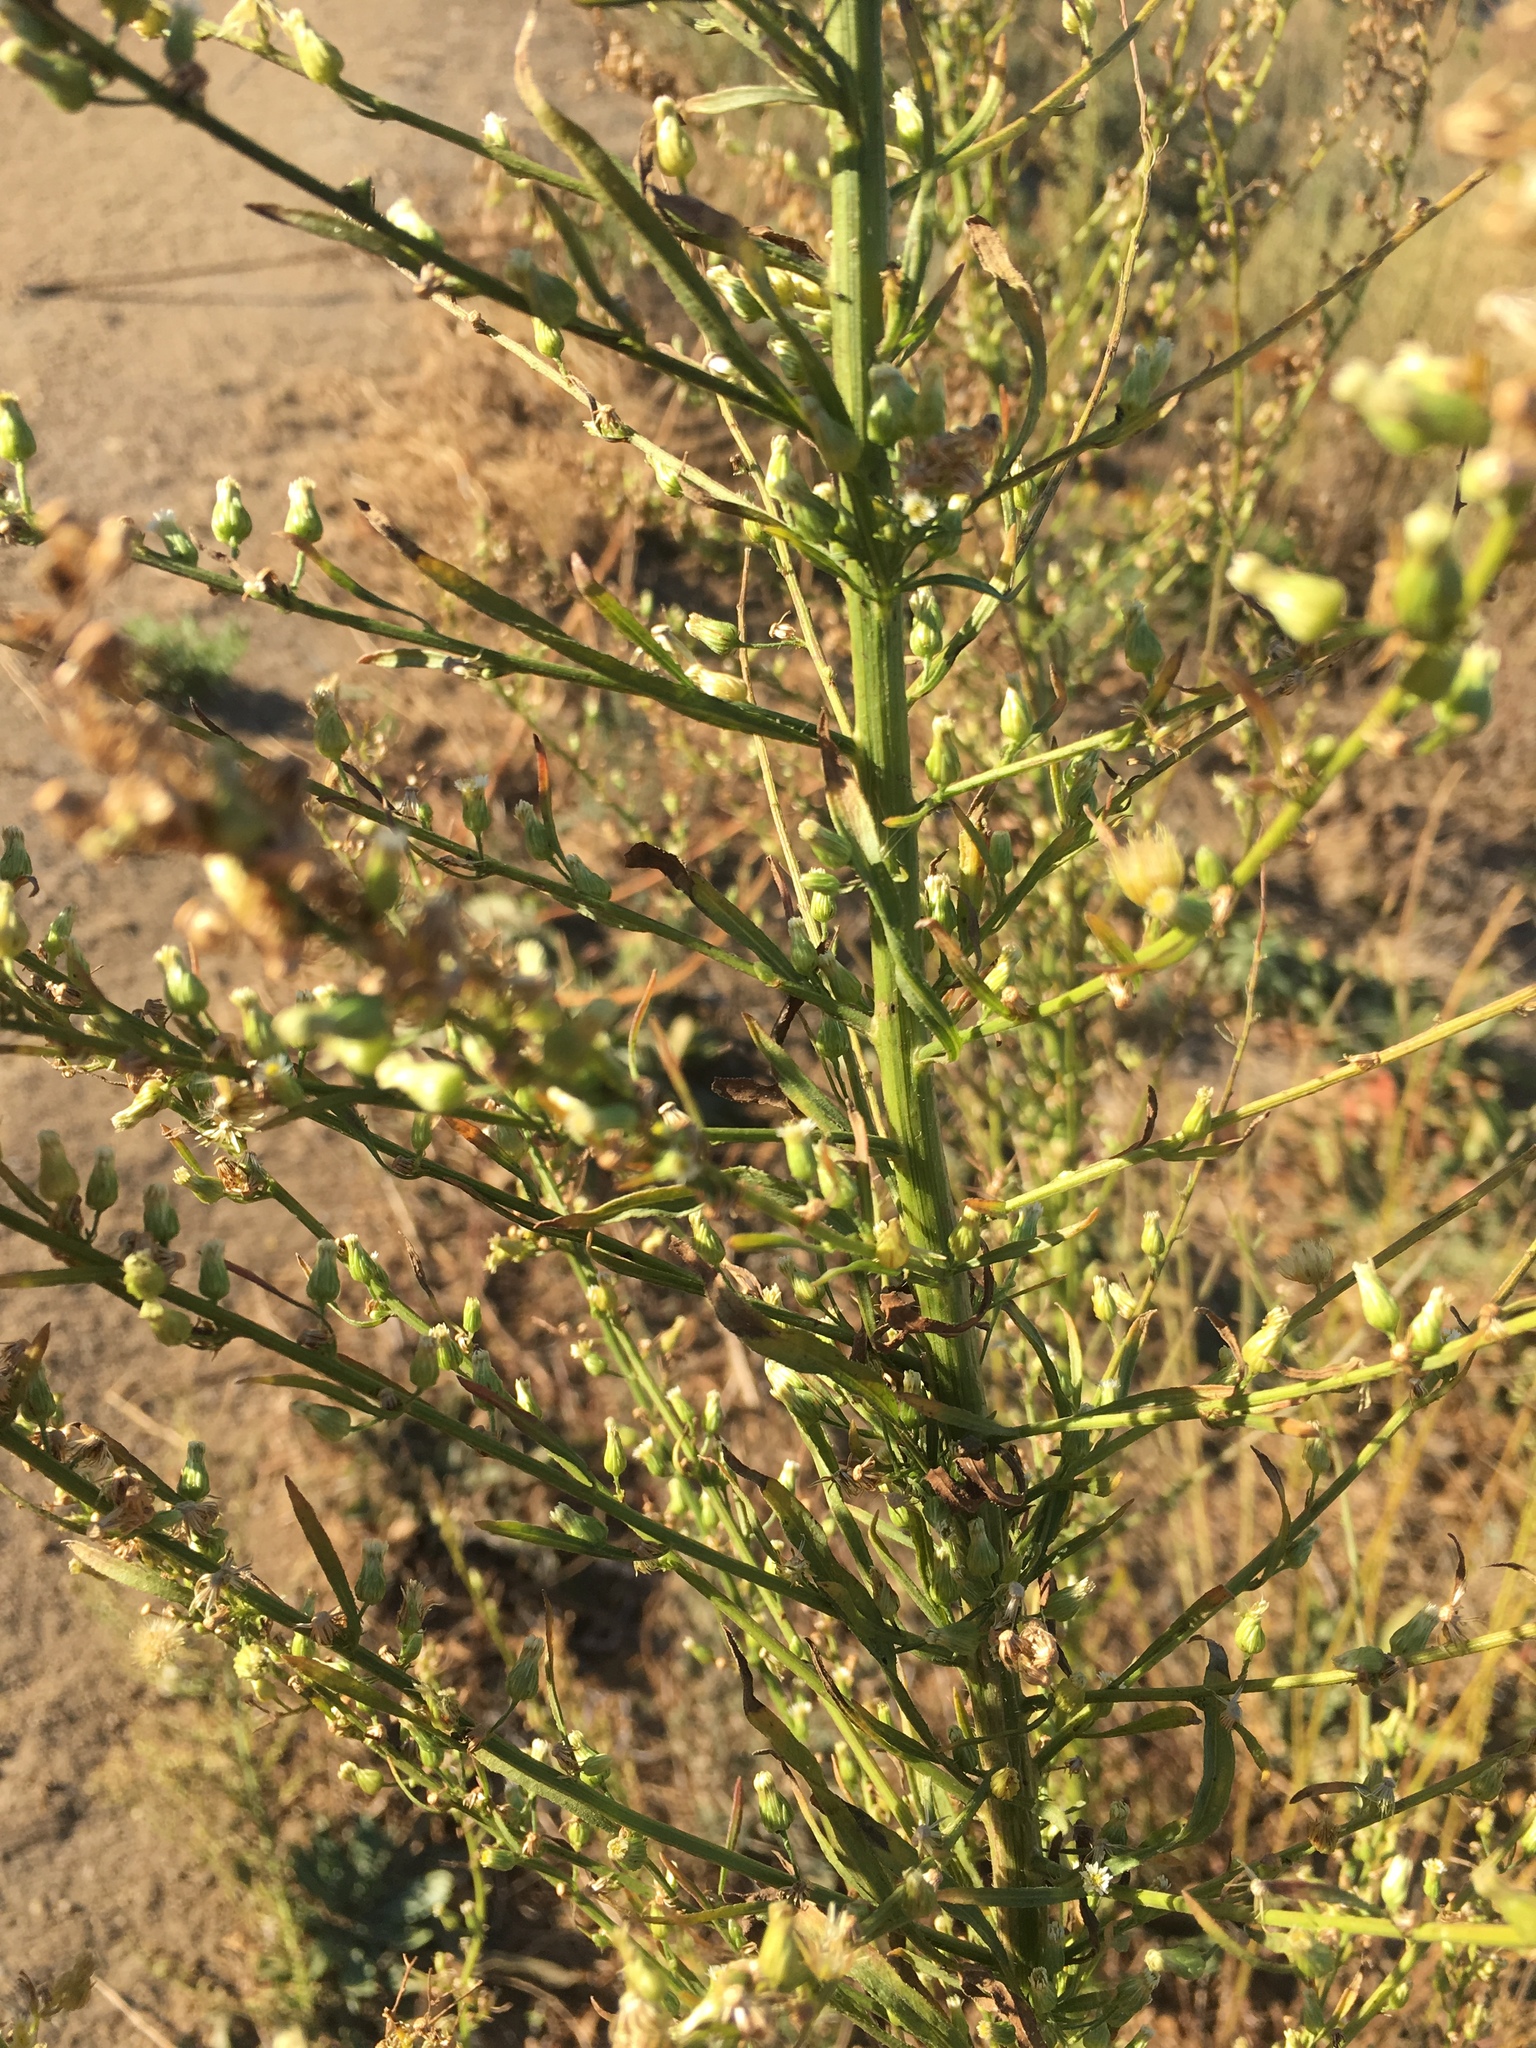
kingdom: Plantae
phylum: Tracheophyta
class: Magnoliopsida
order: Asterales
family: Asteraceae
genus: Erigeron
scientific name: Erigeron canadensis
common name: Canadian fleabane
